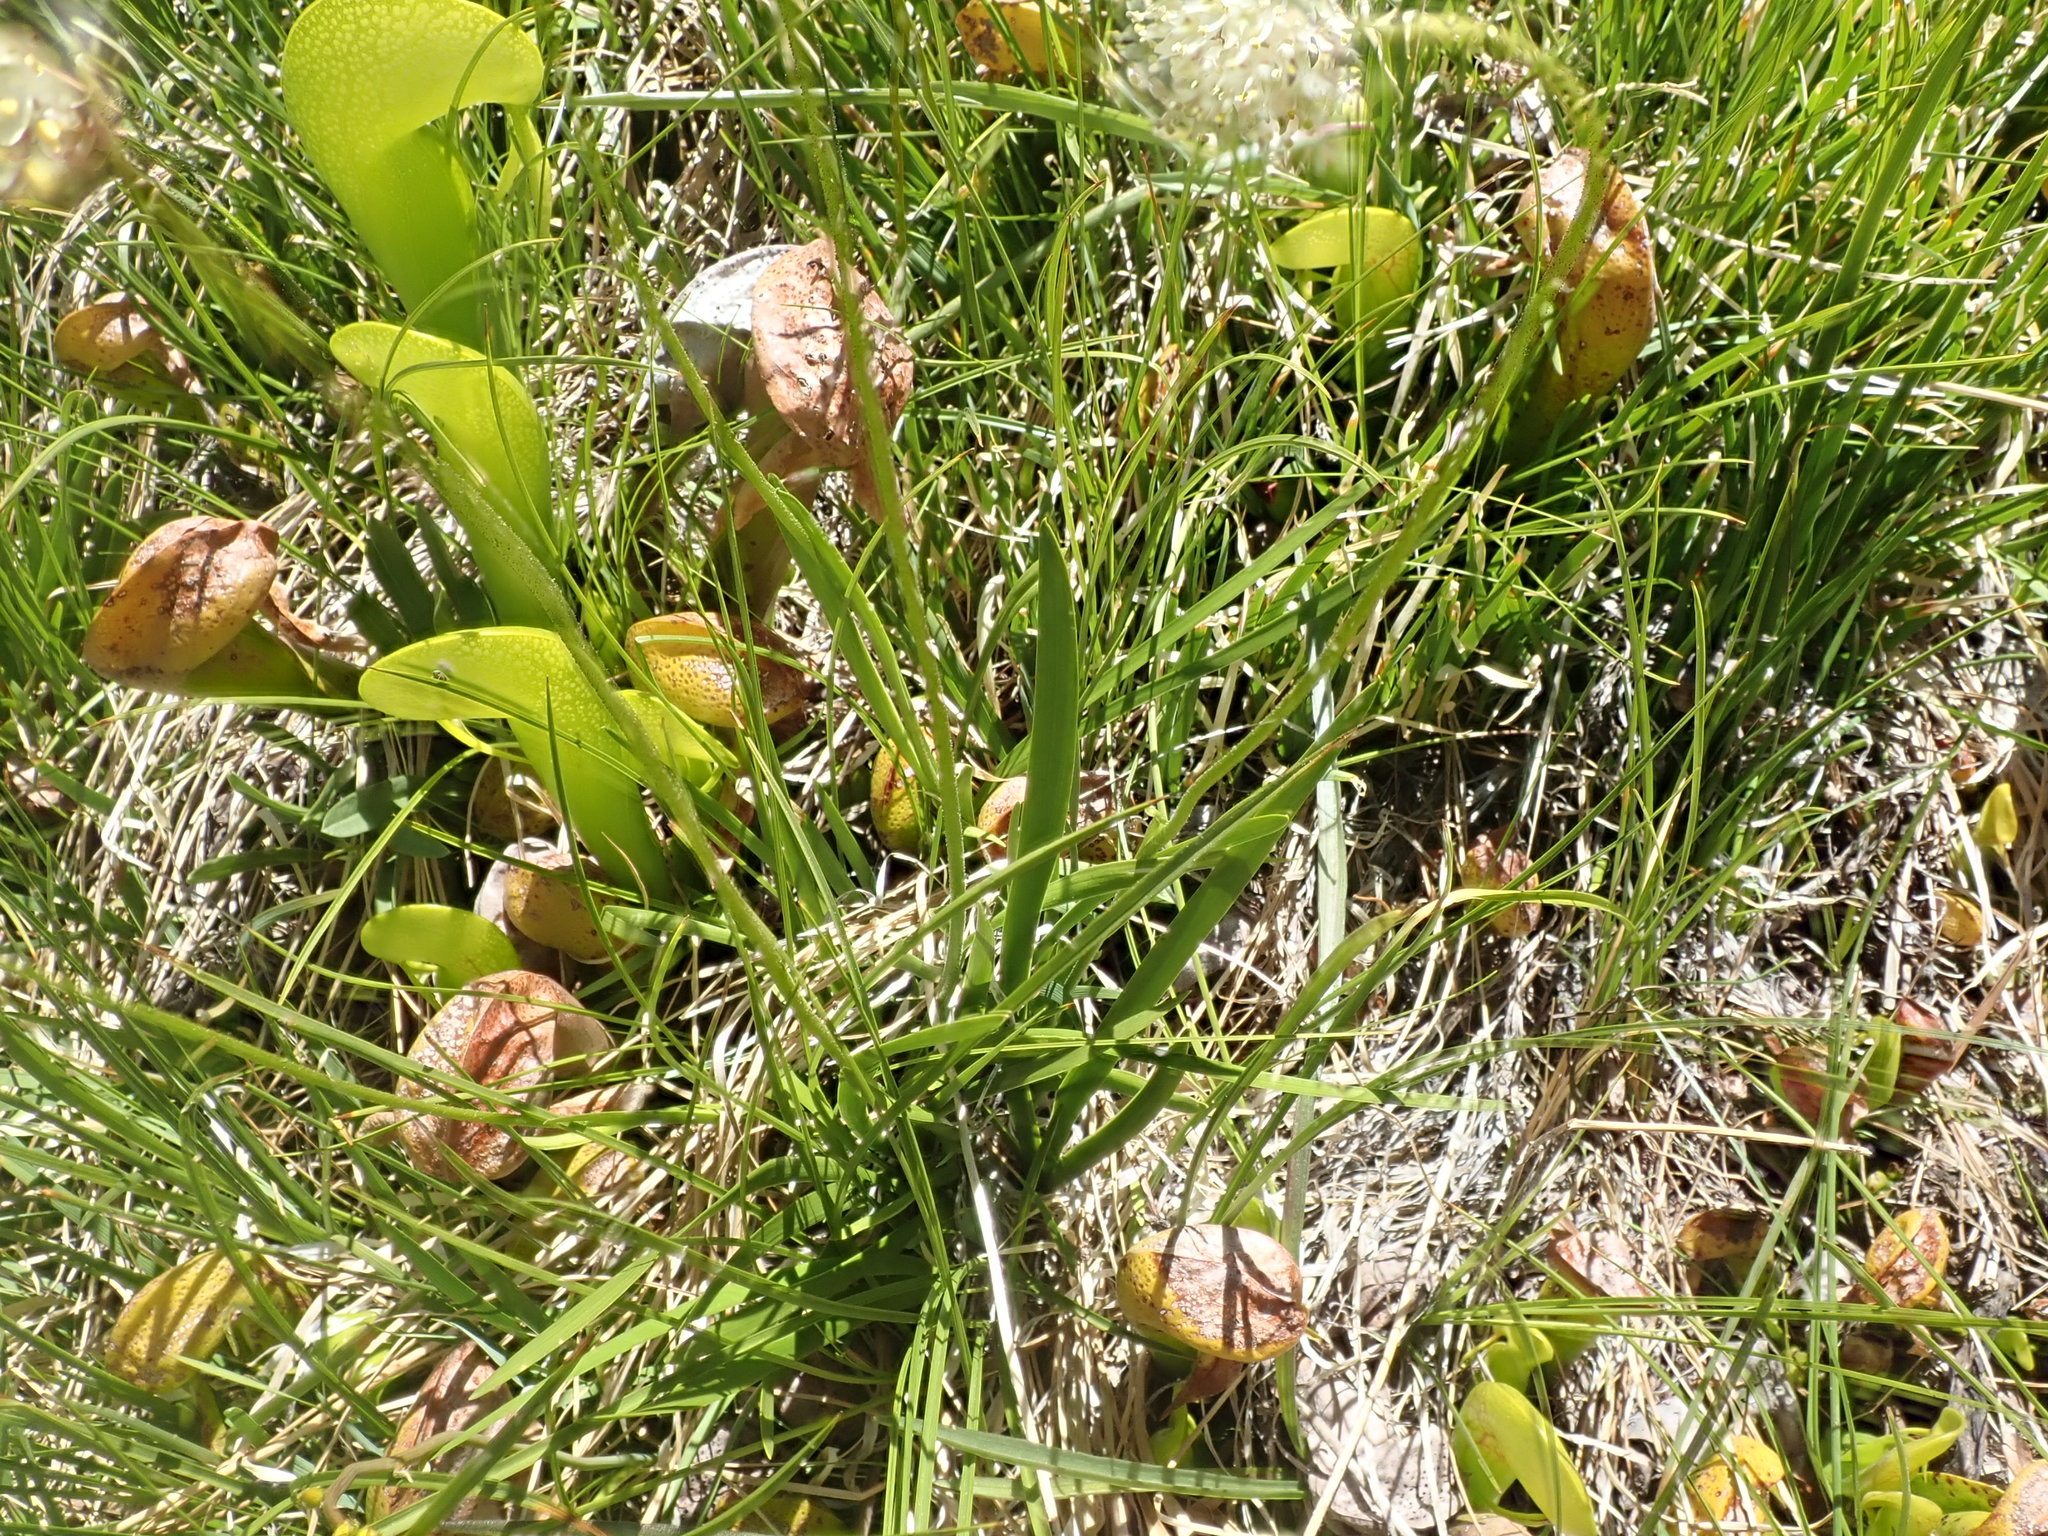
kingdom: Plantae
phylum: Tracheophyta
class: Magnoliopsida
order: Ericales
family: Sarraceniaceae
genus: Darlingtonia
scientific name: Darlingtonia californica
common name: California pitcher plant
